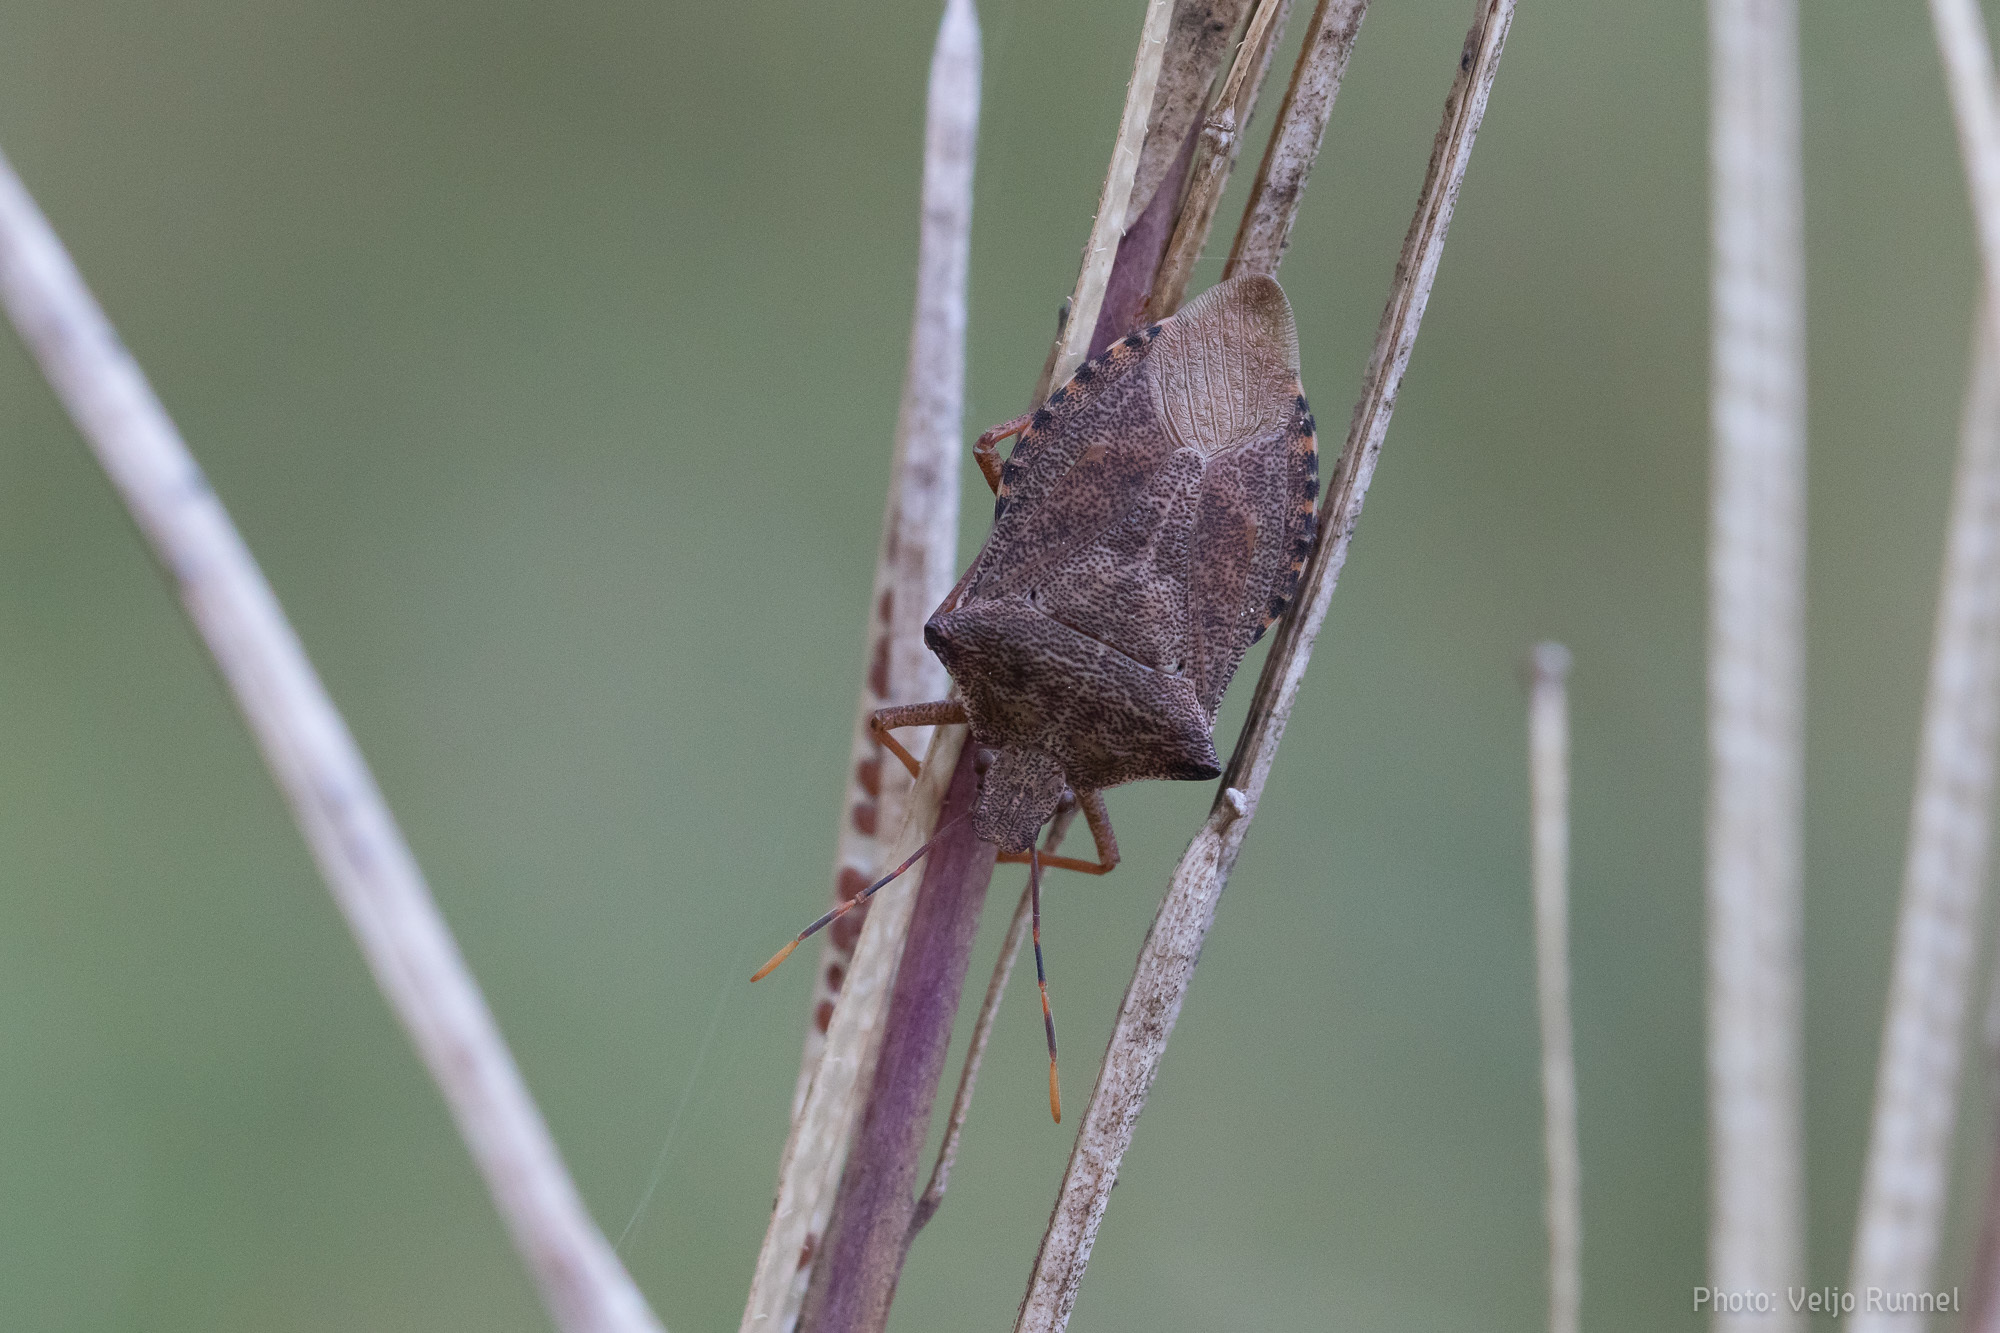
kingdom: Animalia
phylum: Arthropoda
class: Insecta
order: Hemiptera
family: Pentatomidae
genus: Arma
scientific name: Arma custos
